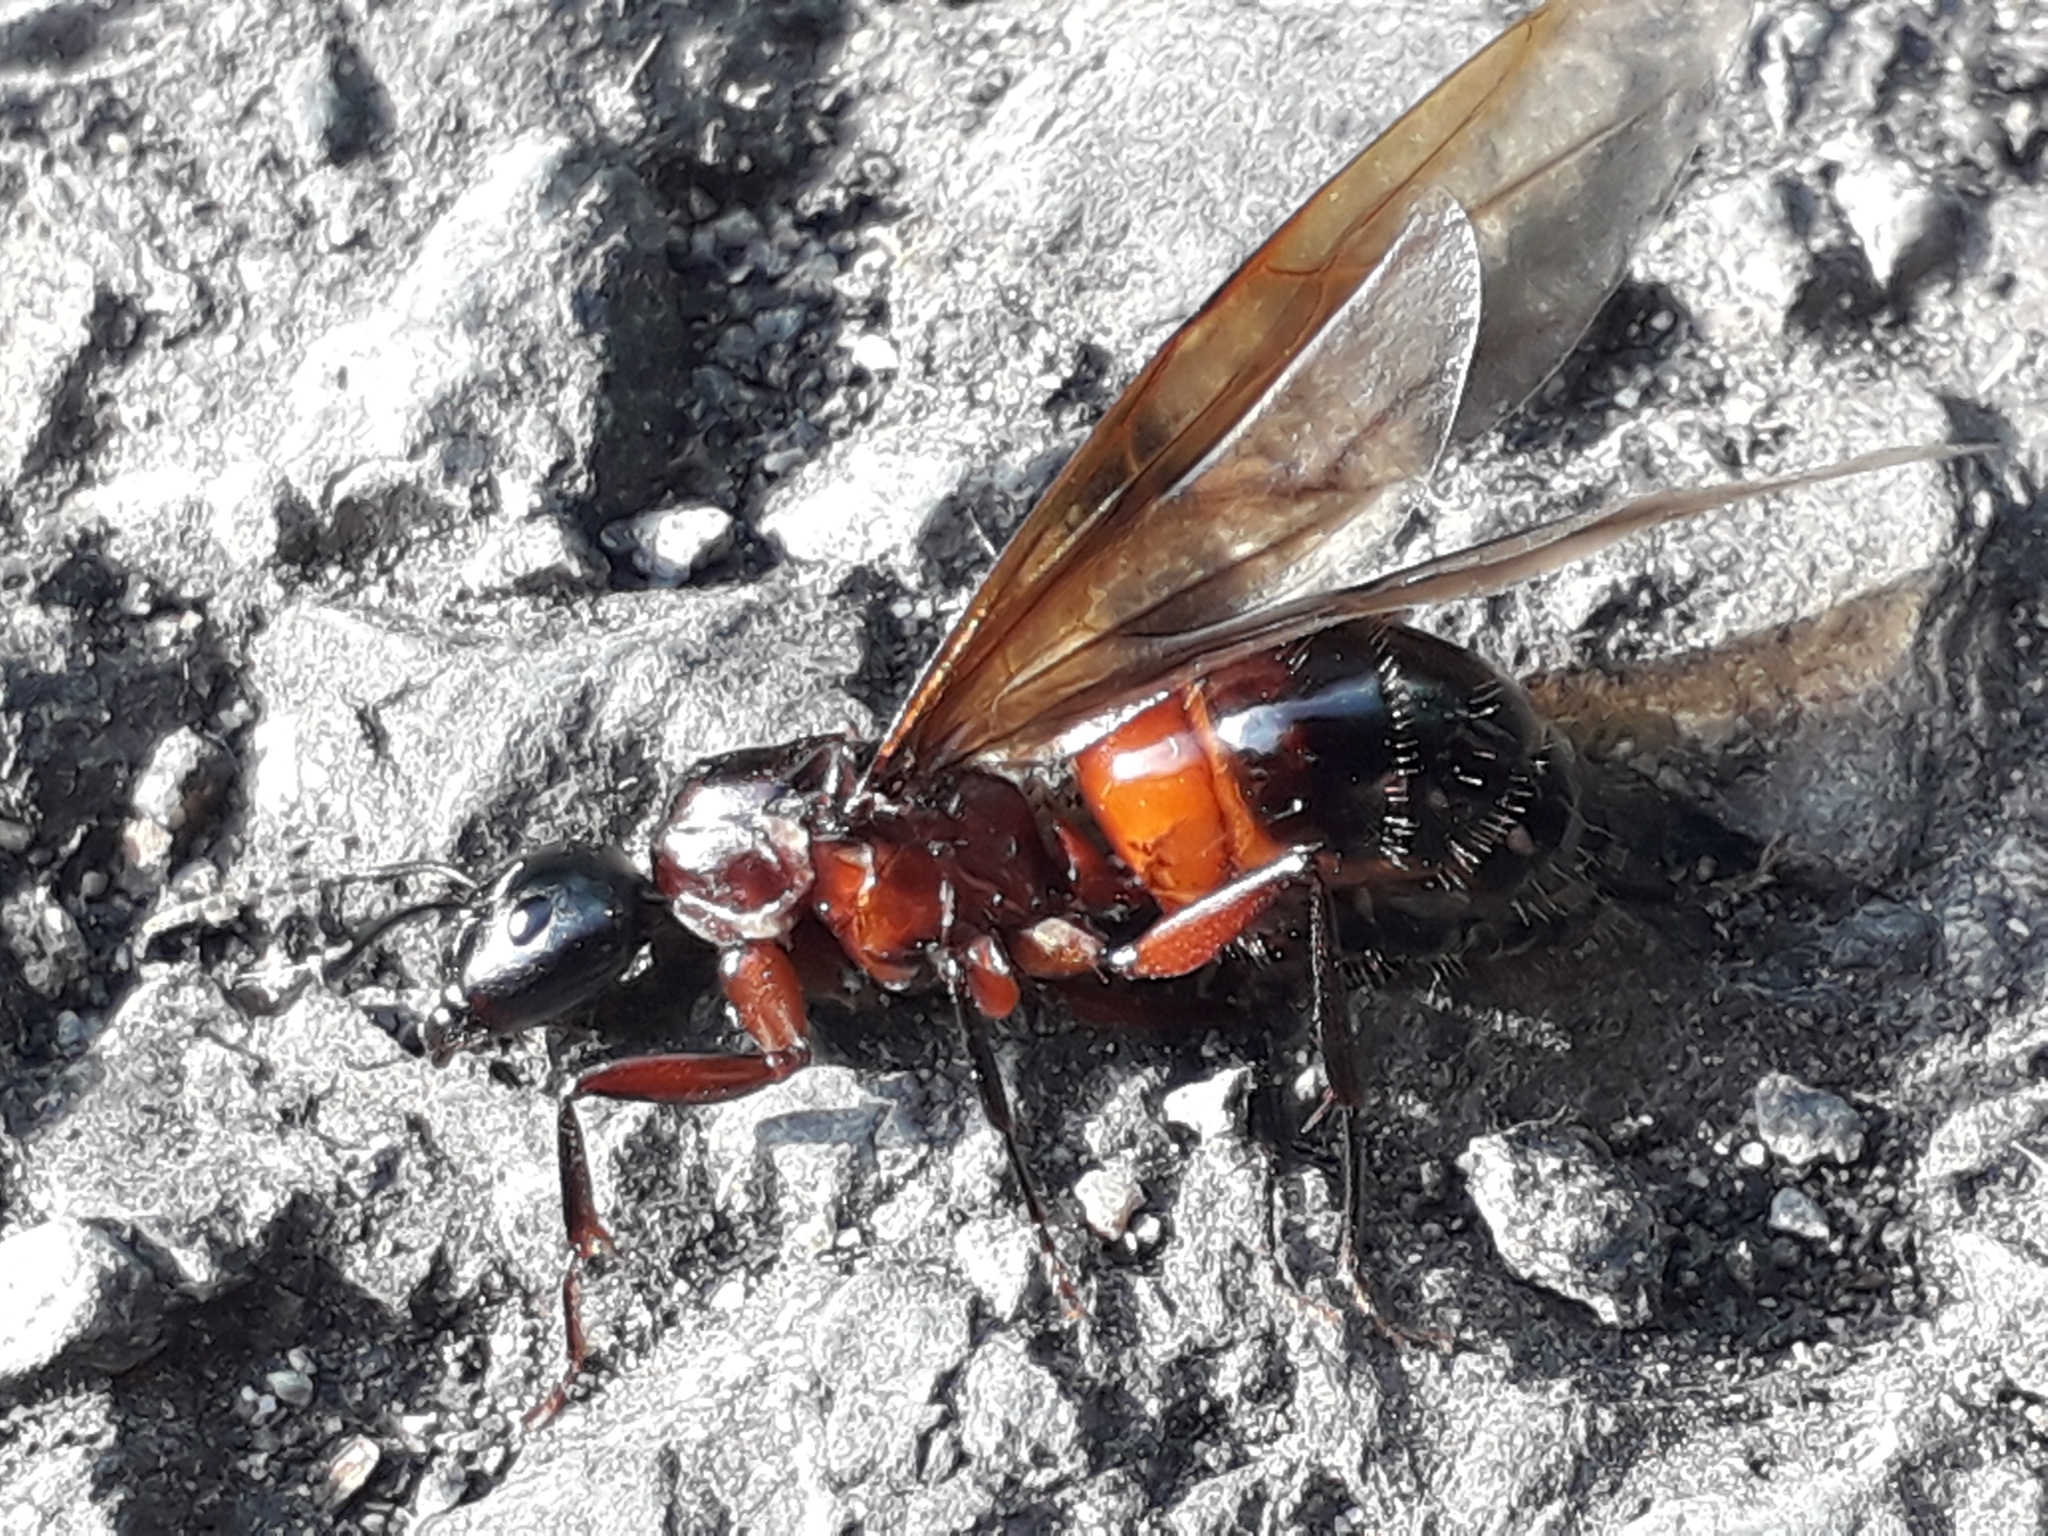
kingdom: Animalia
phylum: Arthropoda
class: Insecta
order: Hymenoptera
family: Formicidae
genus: Camponotus
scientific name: Camponotus ligniperdus
